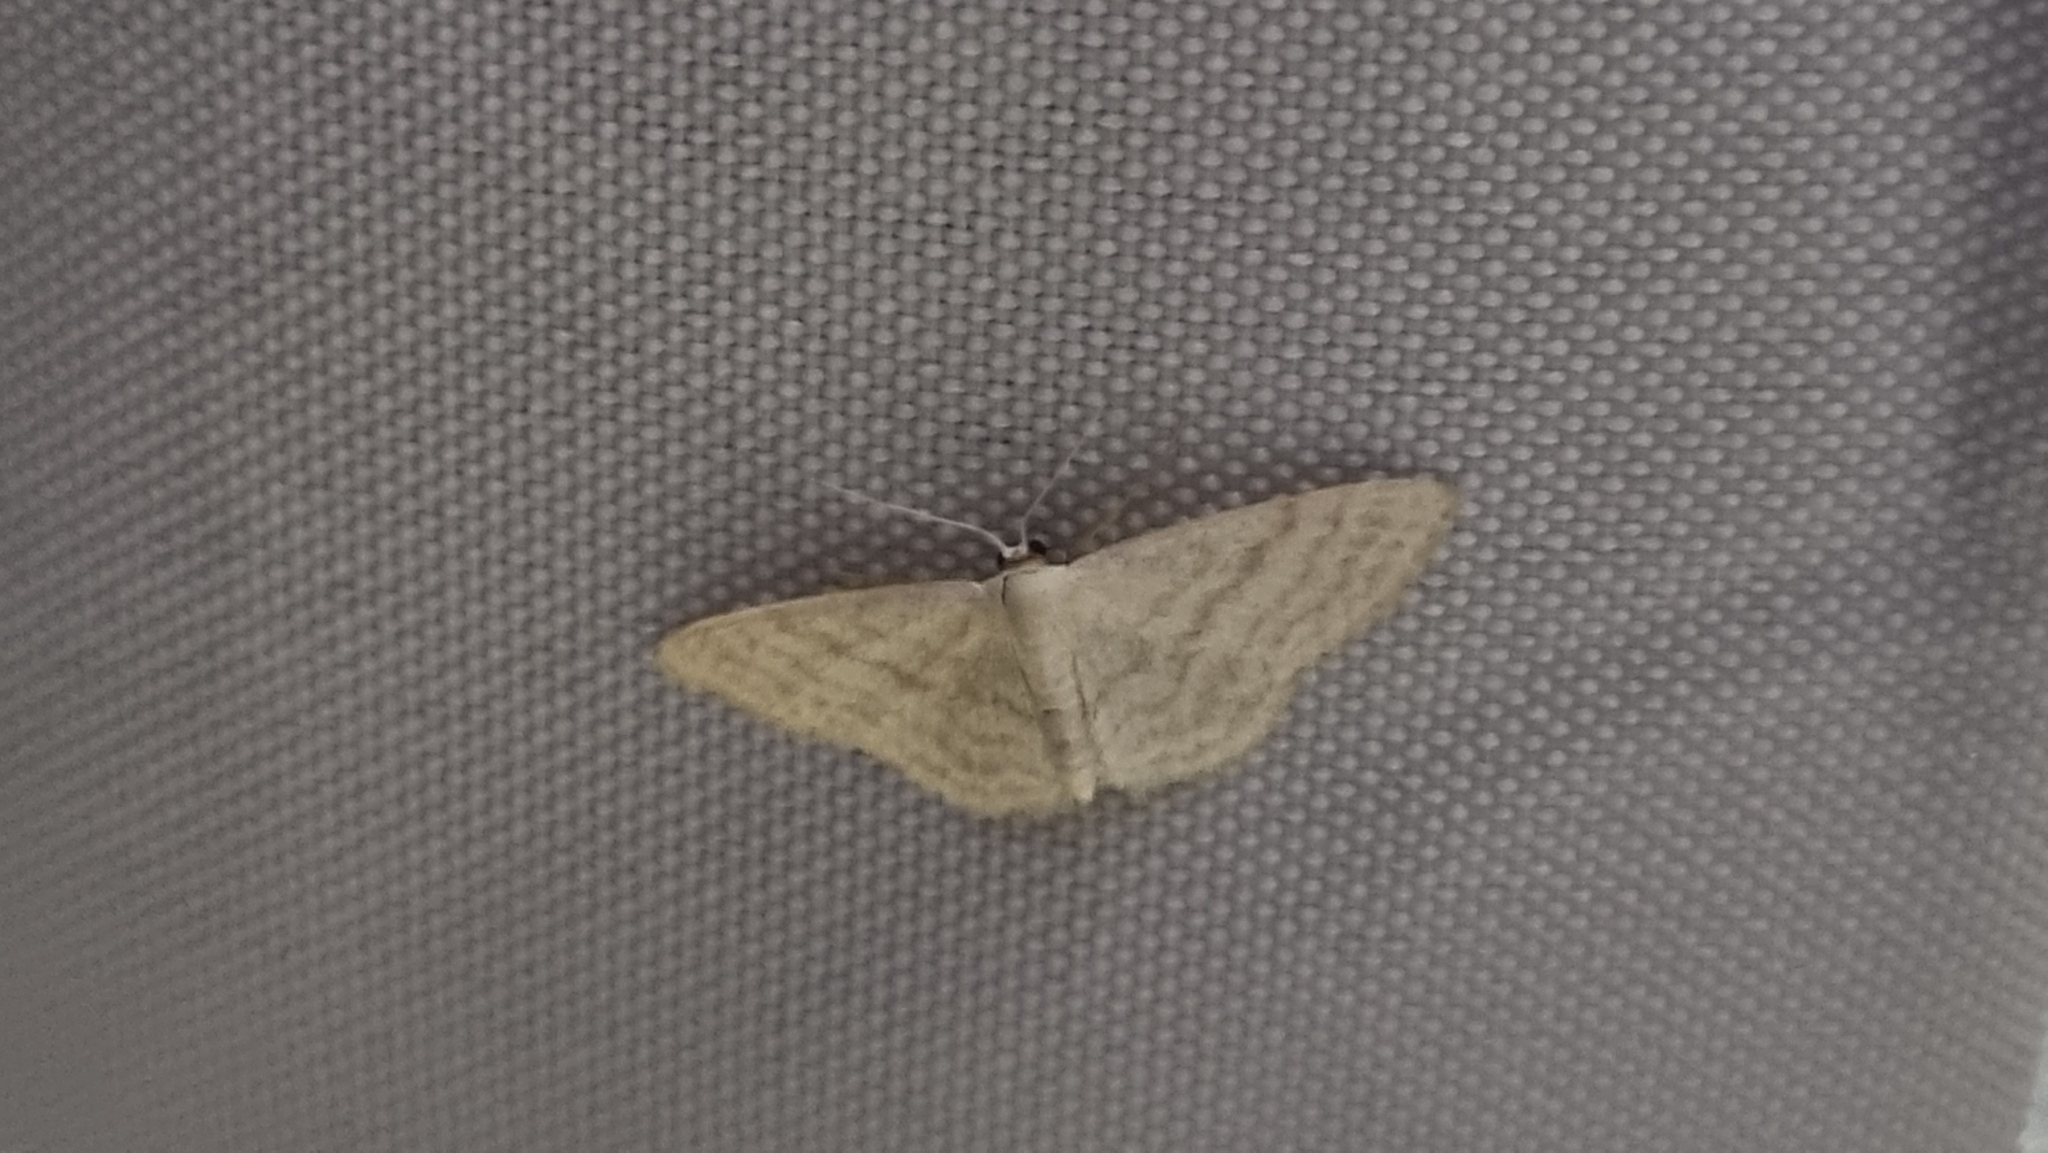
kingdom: Animalia
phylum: Arthropoda
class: Insecta
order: Lepidoptera
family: Geometridae
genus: Idaea
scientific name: Idaea subsericeata
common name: Satin wave
